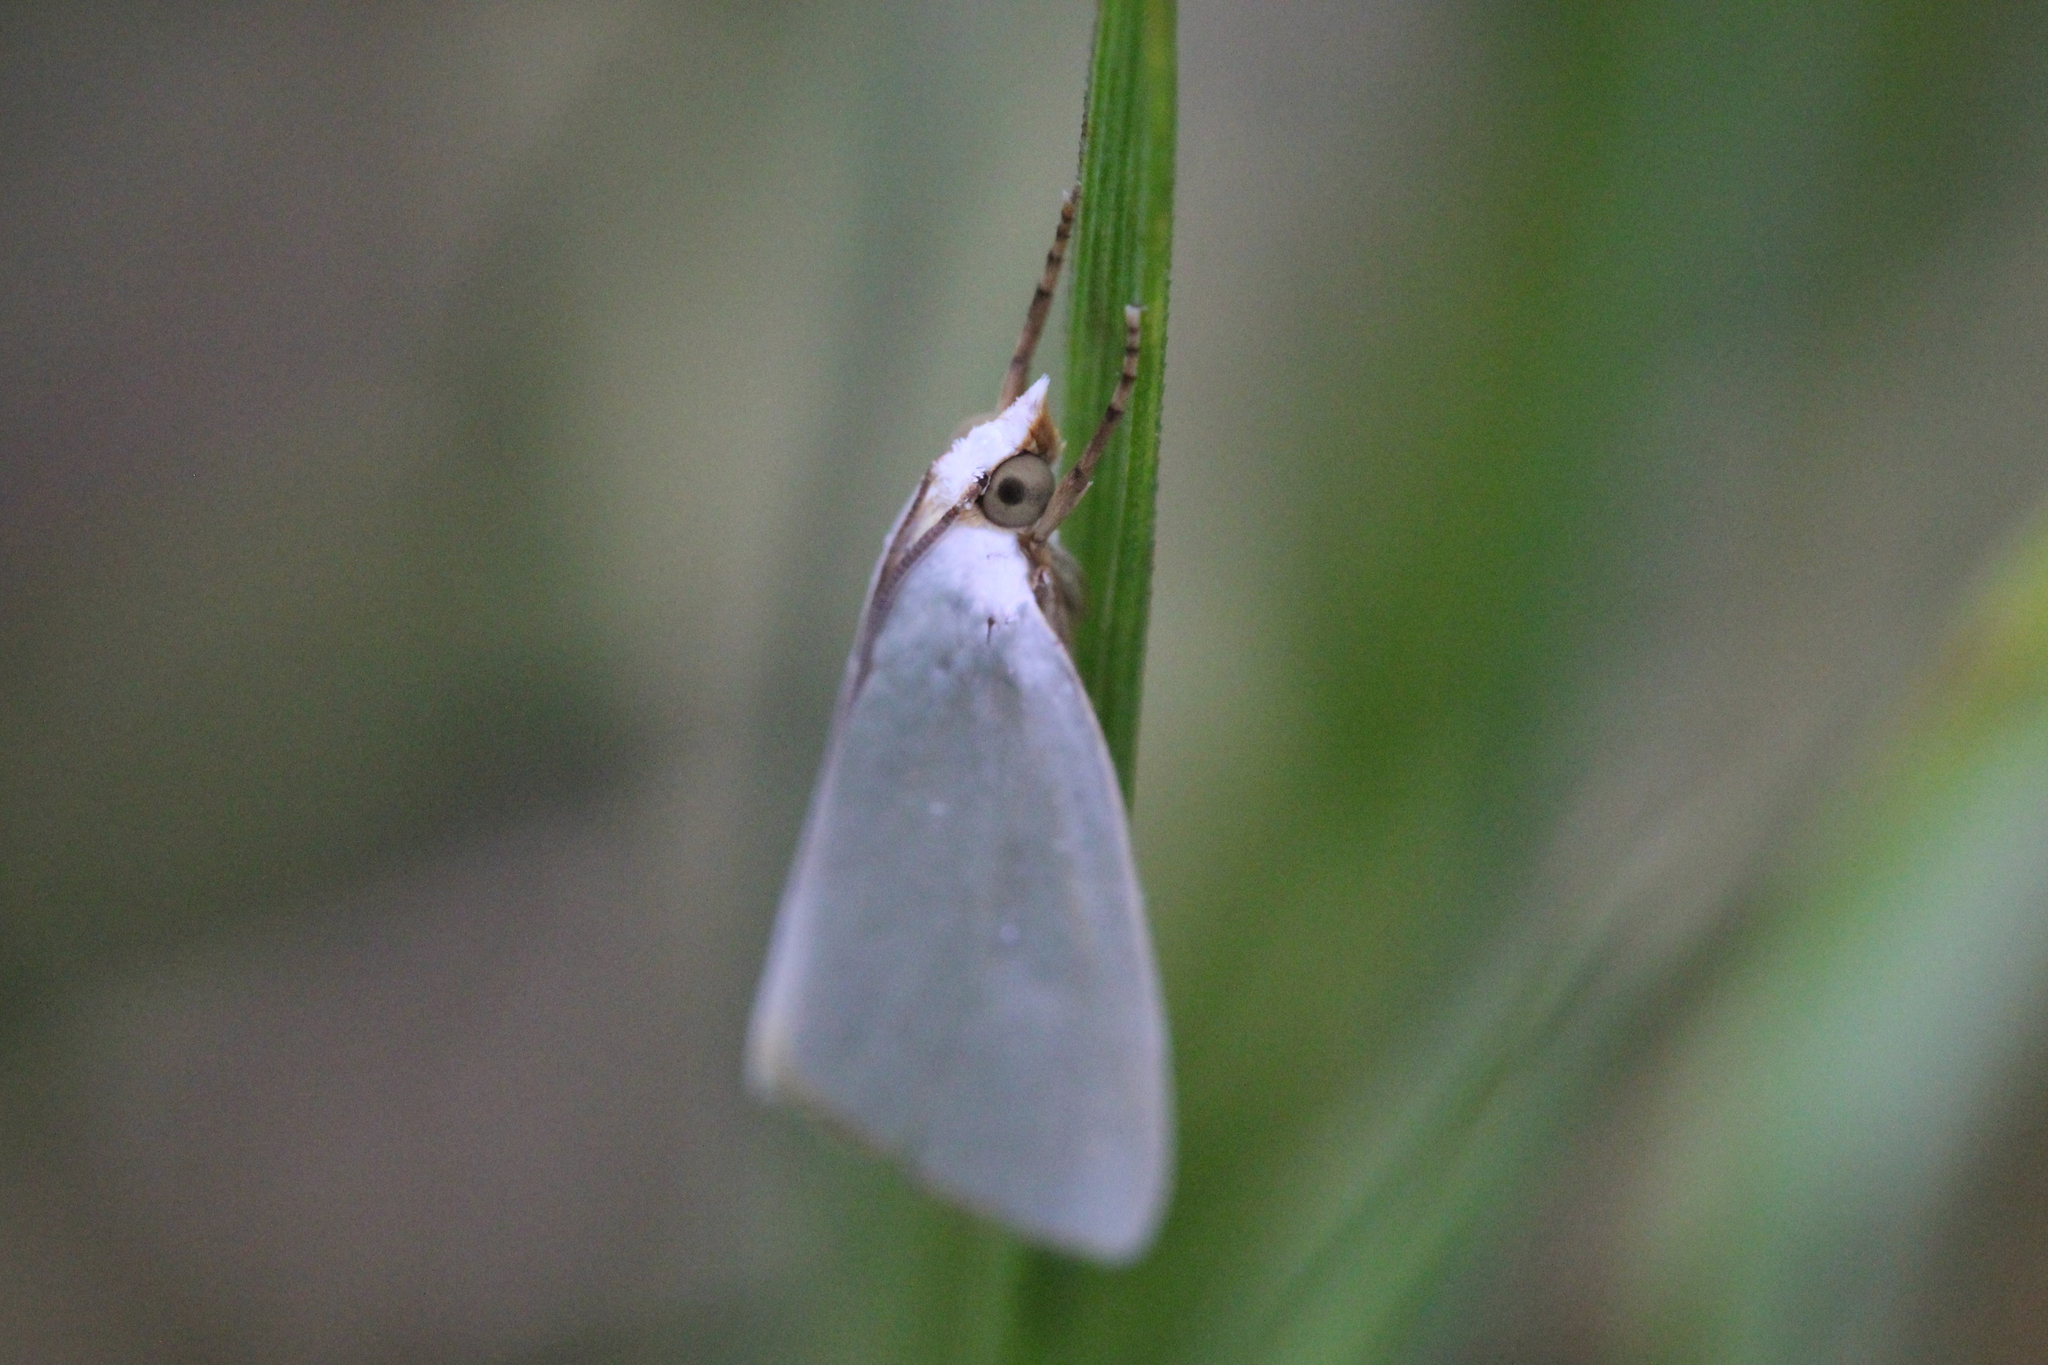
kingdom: Animalia
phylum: Arthropoda
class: Insecta
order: Lepidoptera
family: Crambidae
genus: Argyria
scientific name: Argyria nivalis
